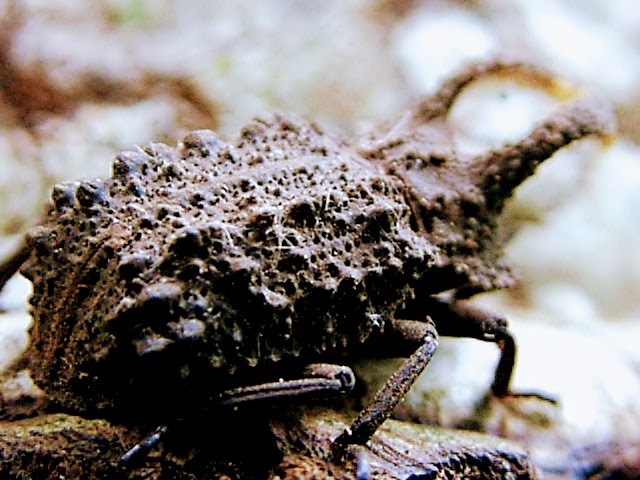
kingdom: Animalia
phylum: Arthropoda
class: Insecta
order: Coleoptera
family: Tenebrionidae
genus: Gnatocerus
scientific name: Gnatocerus cornutus
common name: Broad-horned flour beetle
